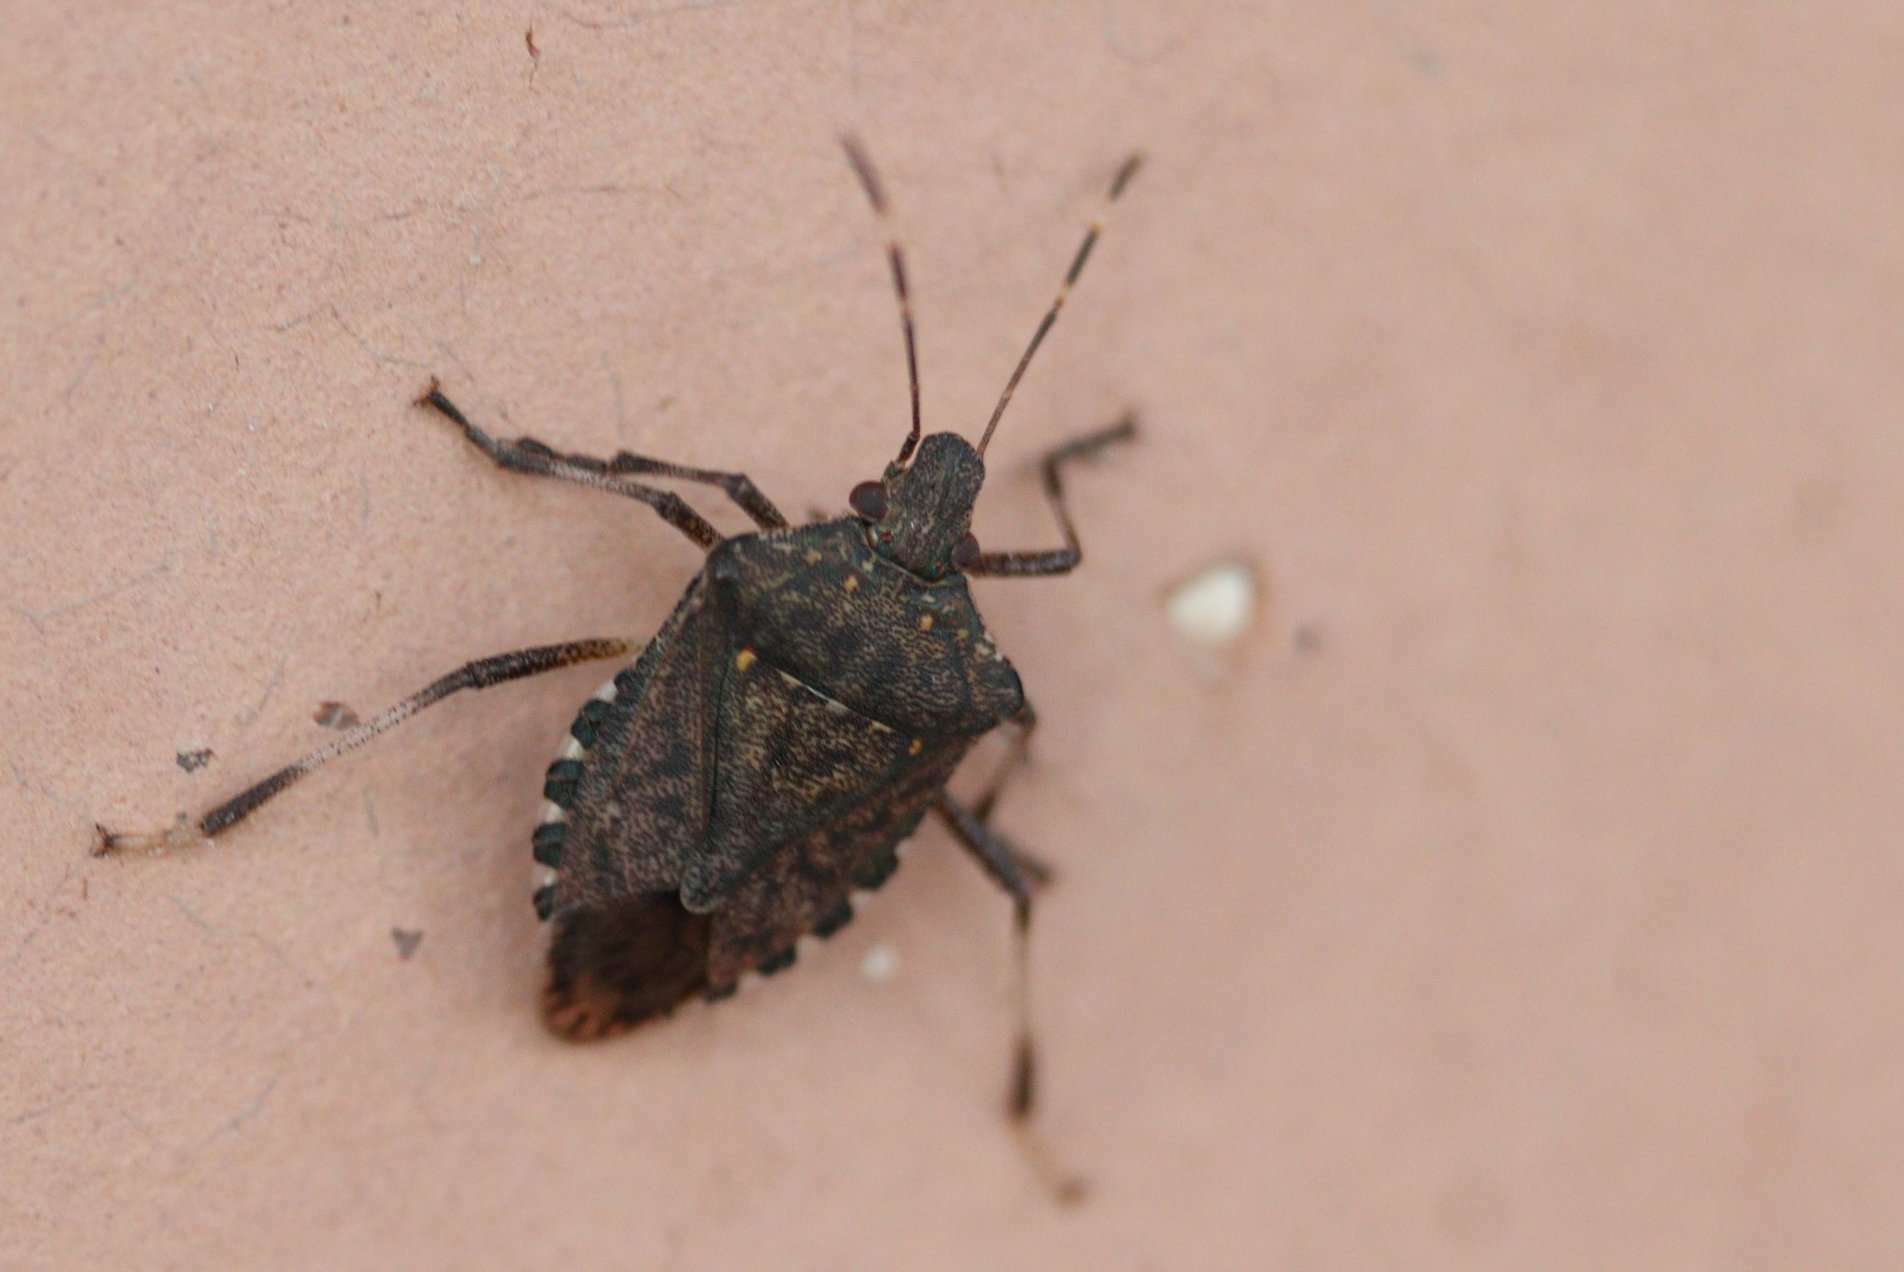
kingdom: Animalia
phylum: Arthropoda
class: Insecta
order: Hemiptera
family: Pentatomidae
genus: Halyomorpha
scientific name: Halyomorpha halys
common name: Brown marmorated stink bug
